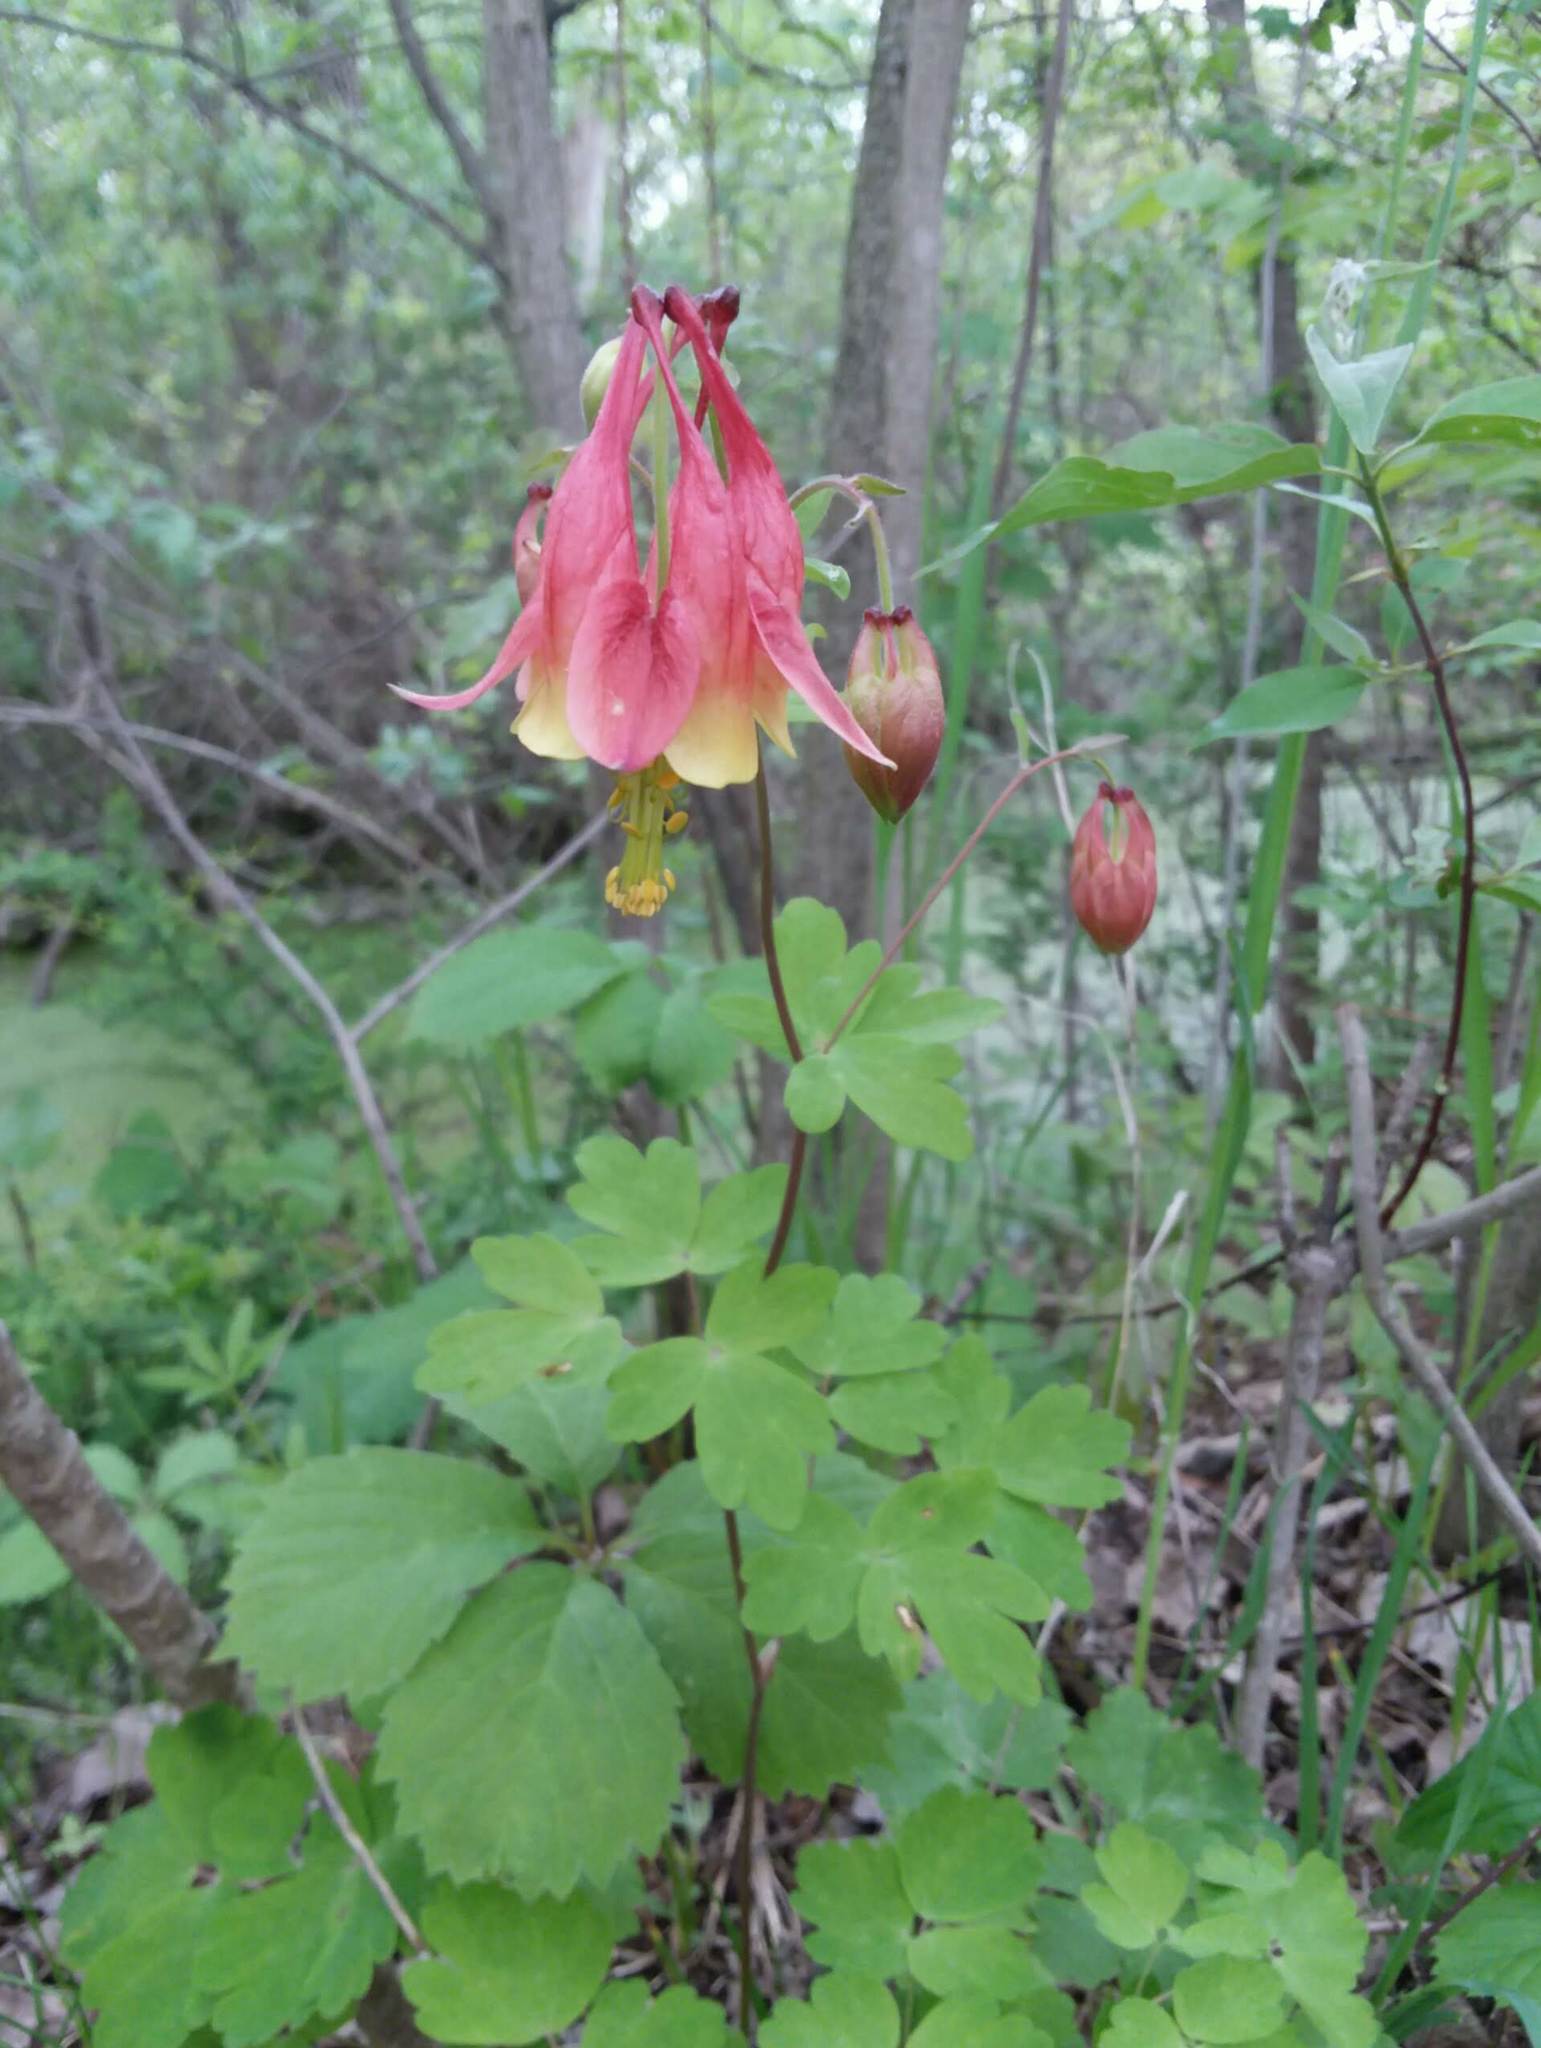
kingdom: Plantae
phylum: Tracheophyta
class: Magnoliopsida
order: Ranunculales
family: Ranunculaceae
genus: Aquilegia
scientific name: Aquilegia canadensis
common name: American columbine
